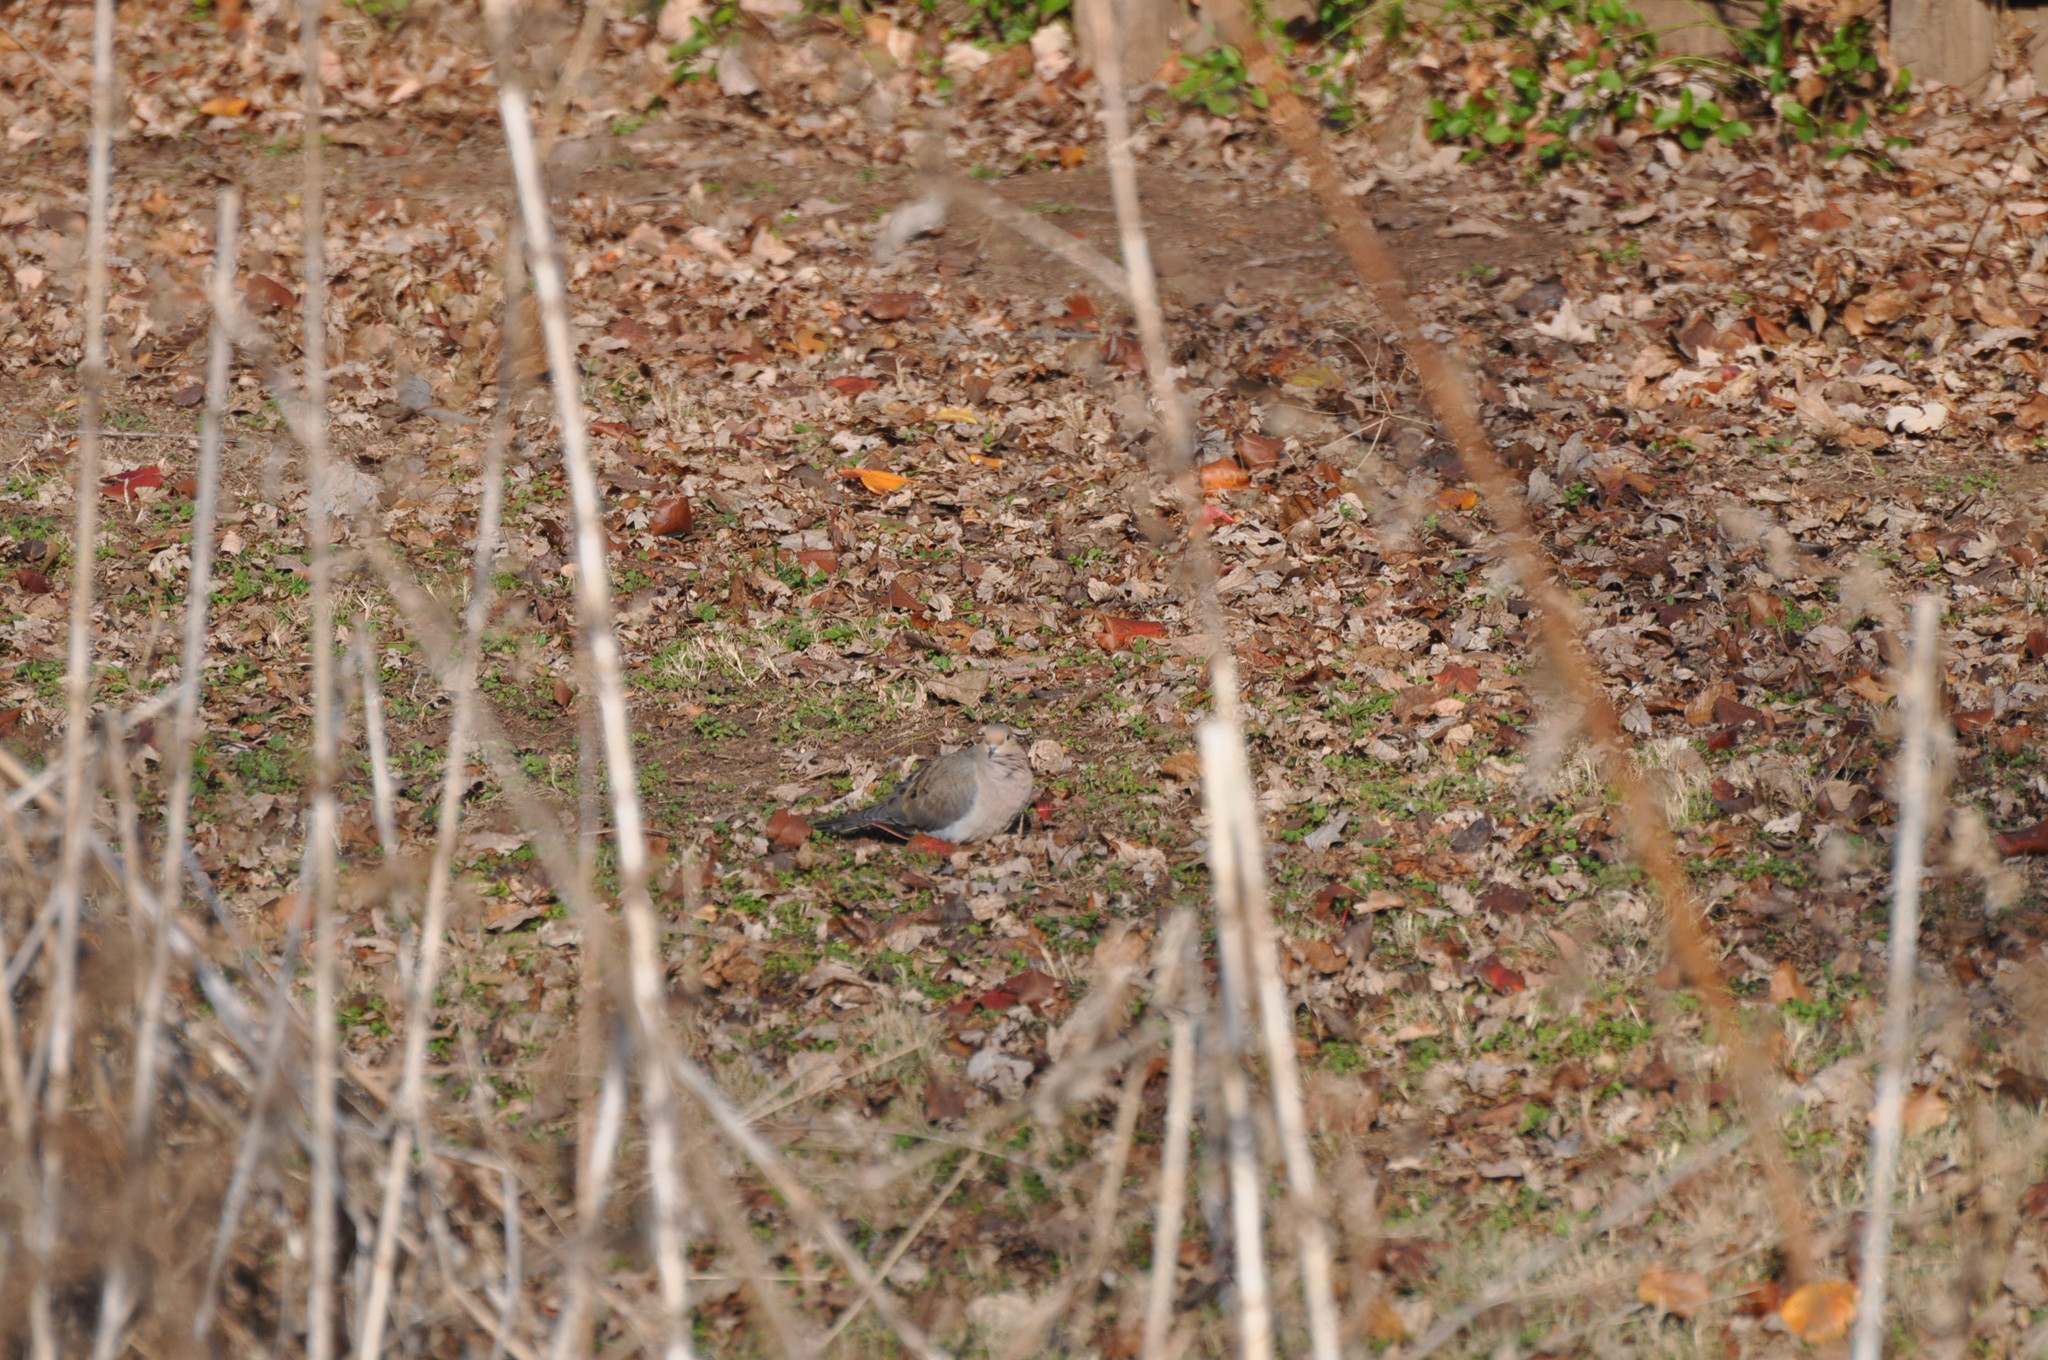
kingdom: Animalia
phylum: Chordata
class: Aves
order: Columbiformes
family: Columbidae
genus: Zenaida
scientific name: Zenaida macroura
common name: Mourning dove
